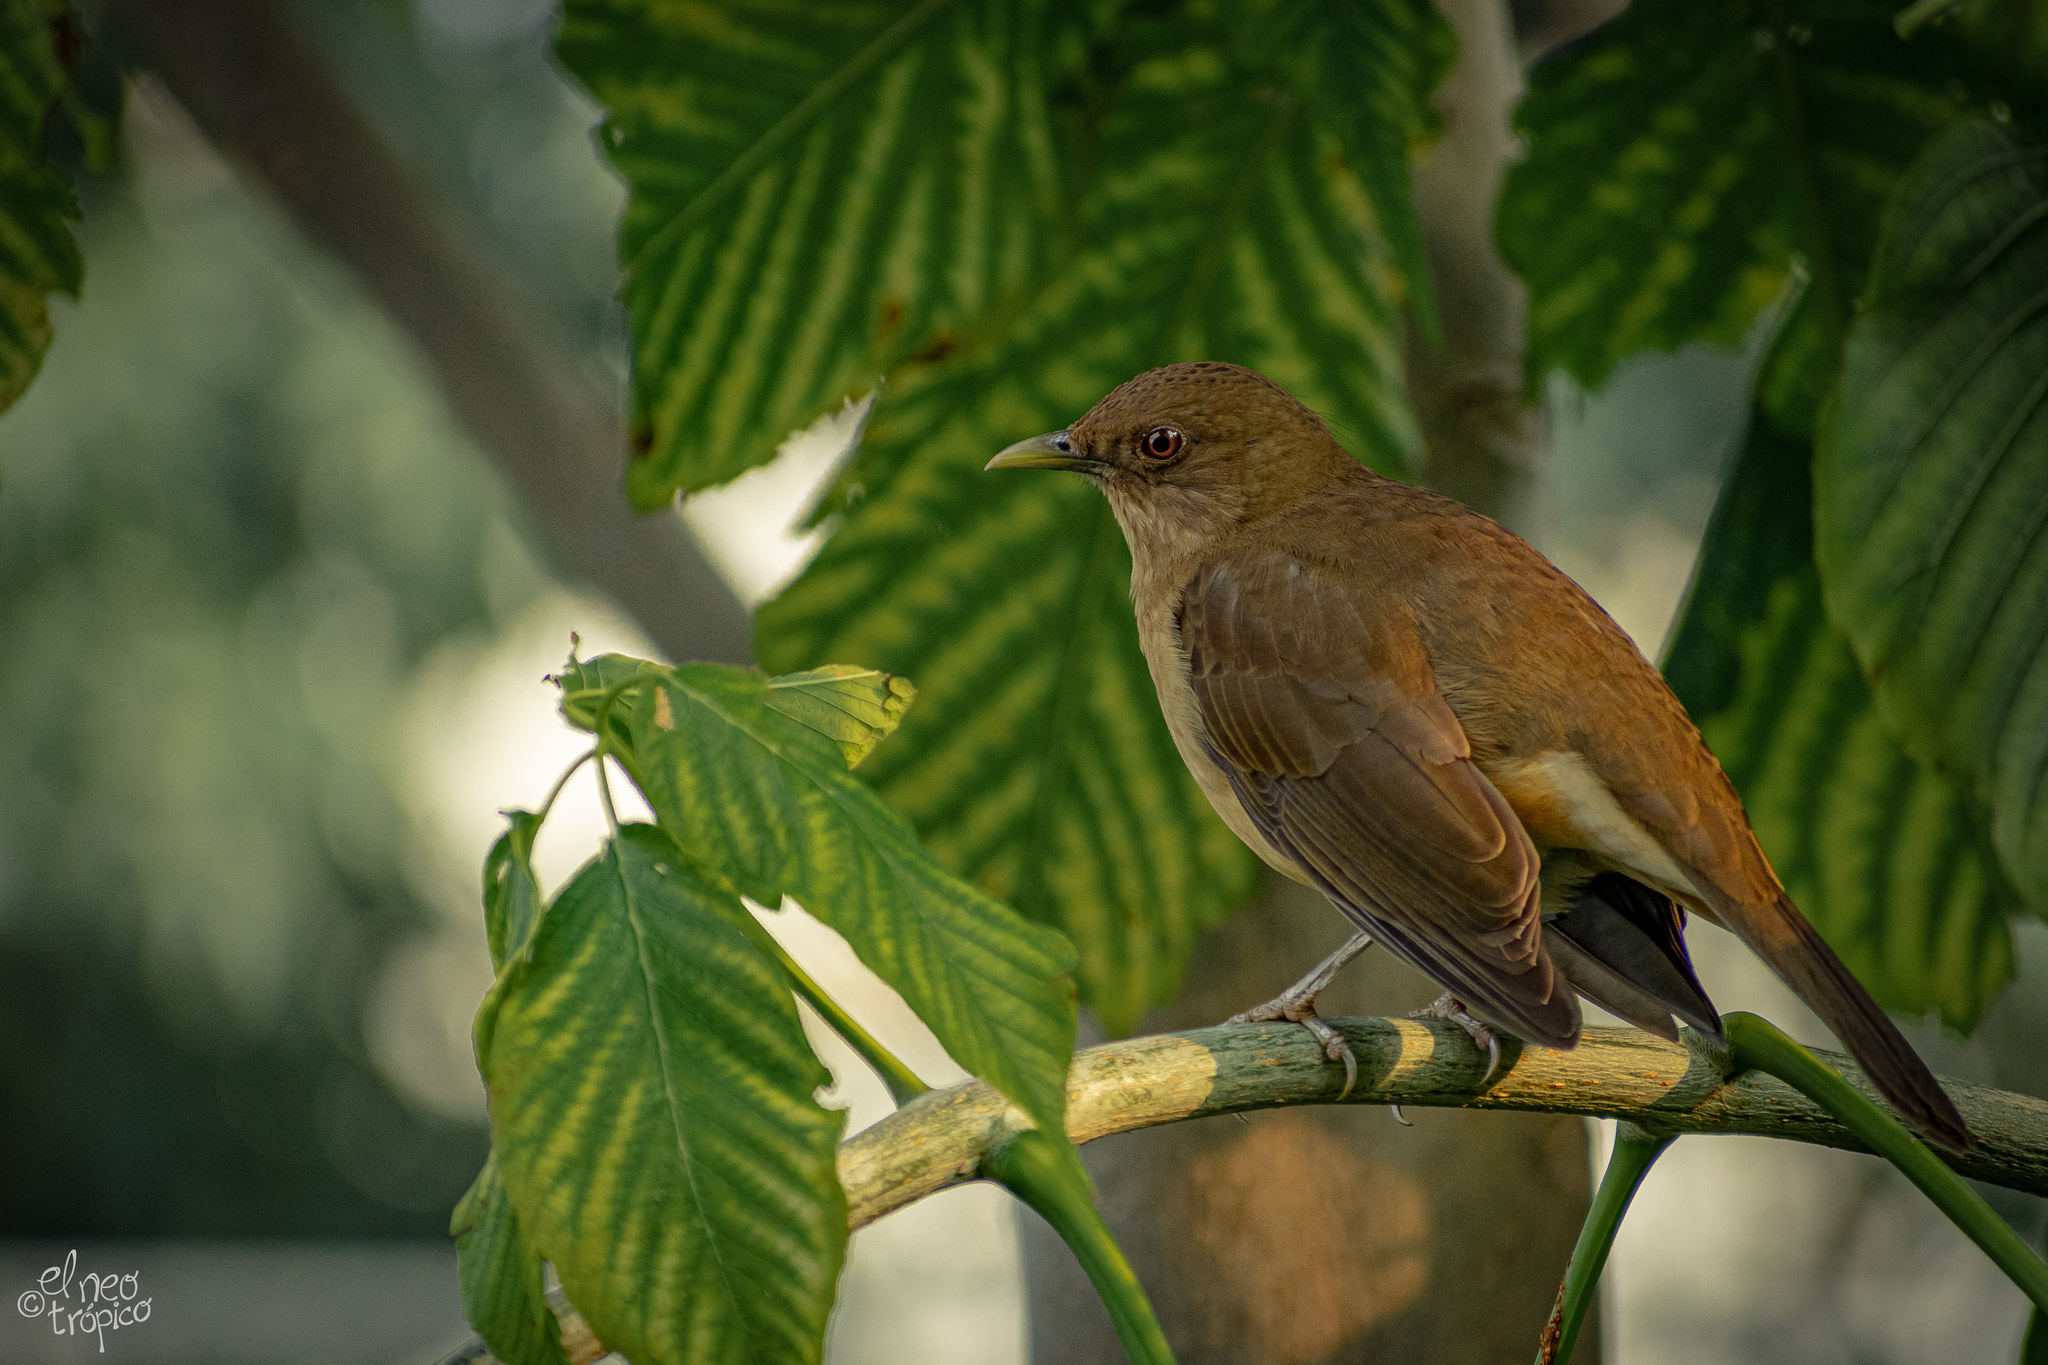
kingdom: Animalia
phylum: Chordata
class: Aves
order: Passeriformes
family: Turdidae
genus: Turdus
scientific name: Turdus grayi
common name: Clay-colored thrush
